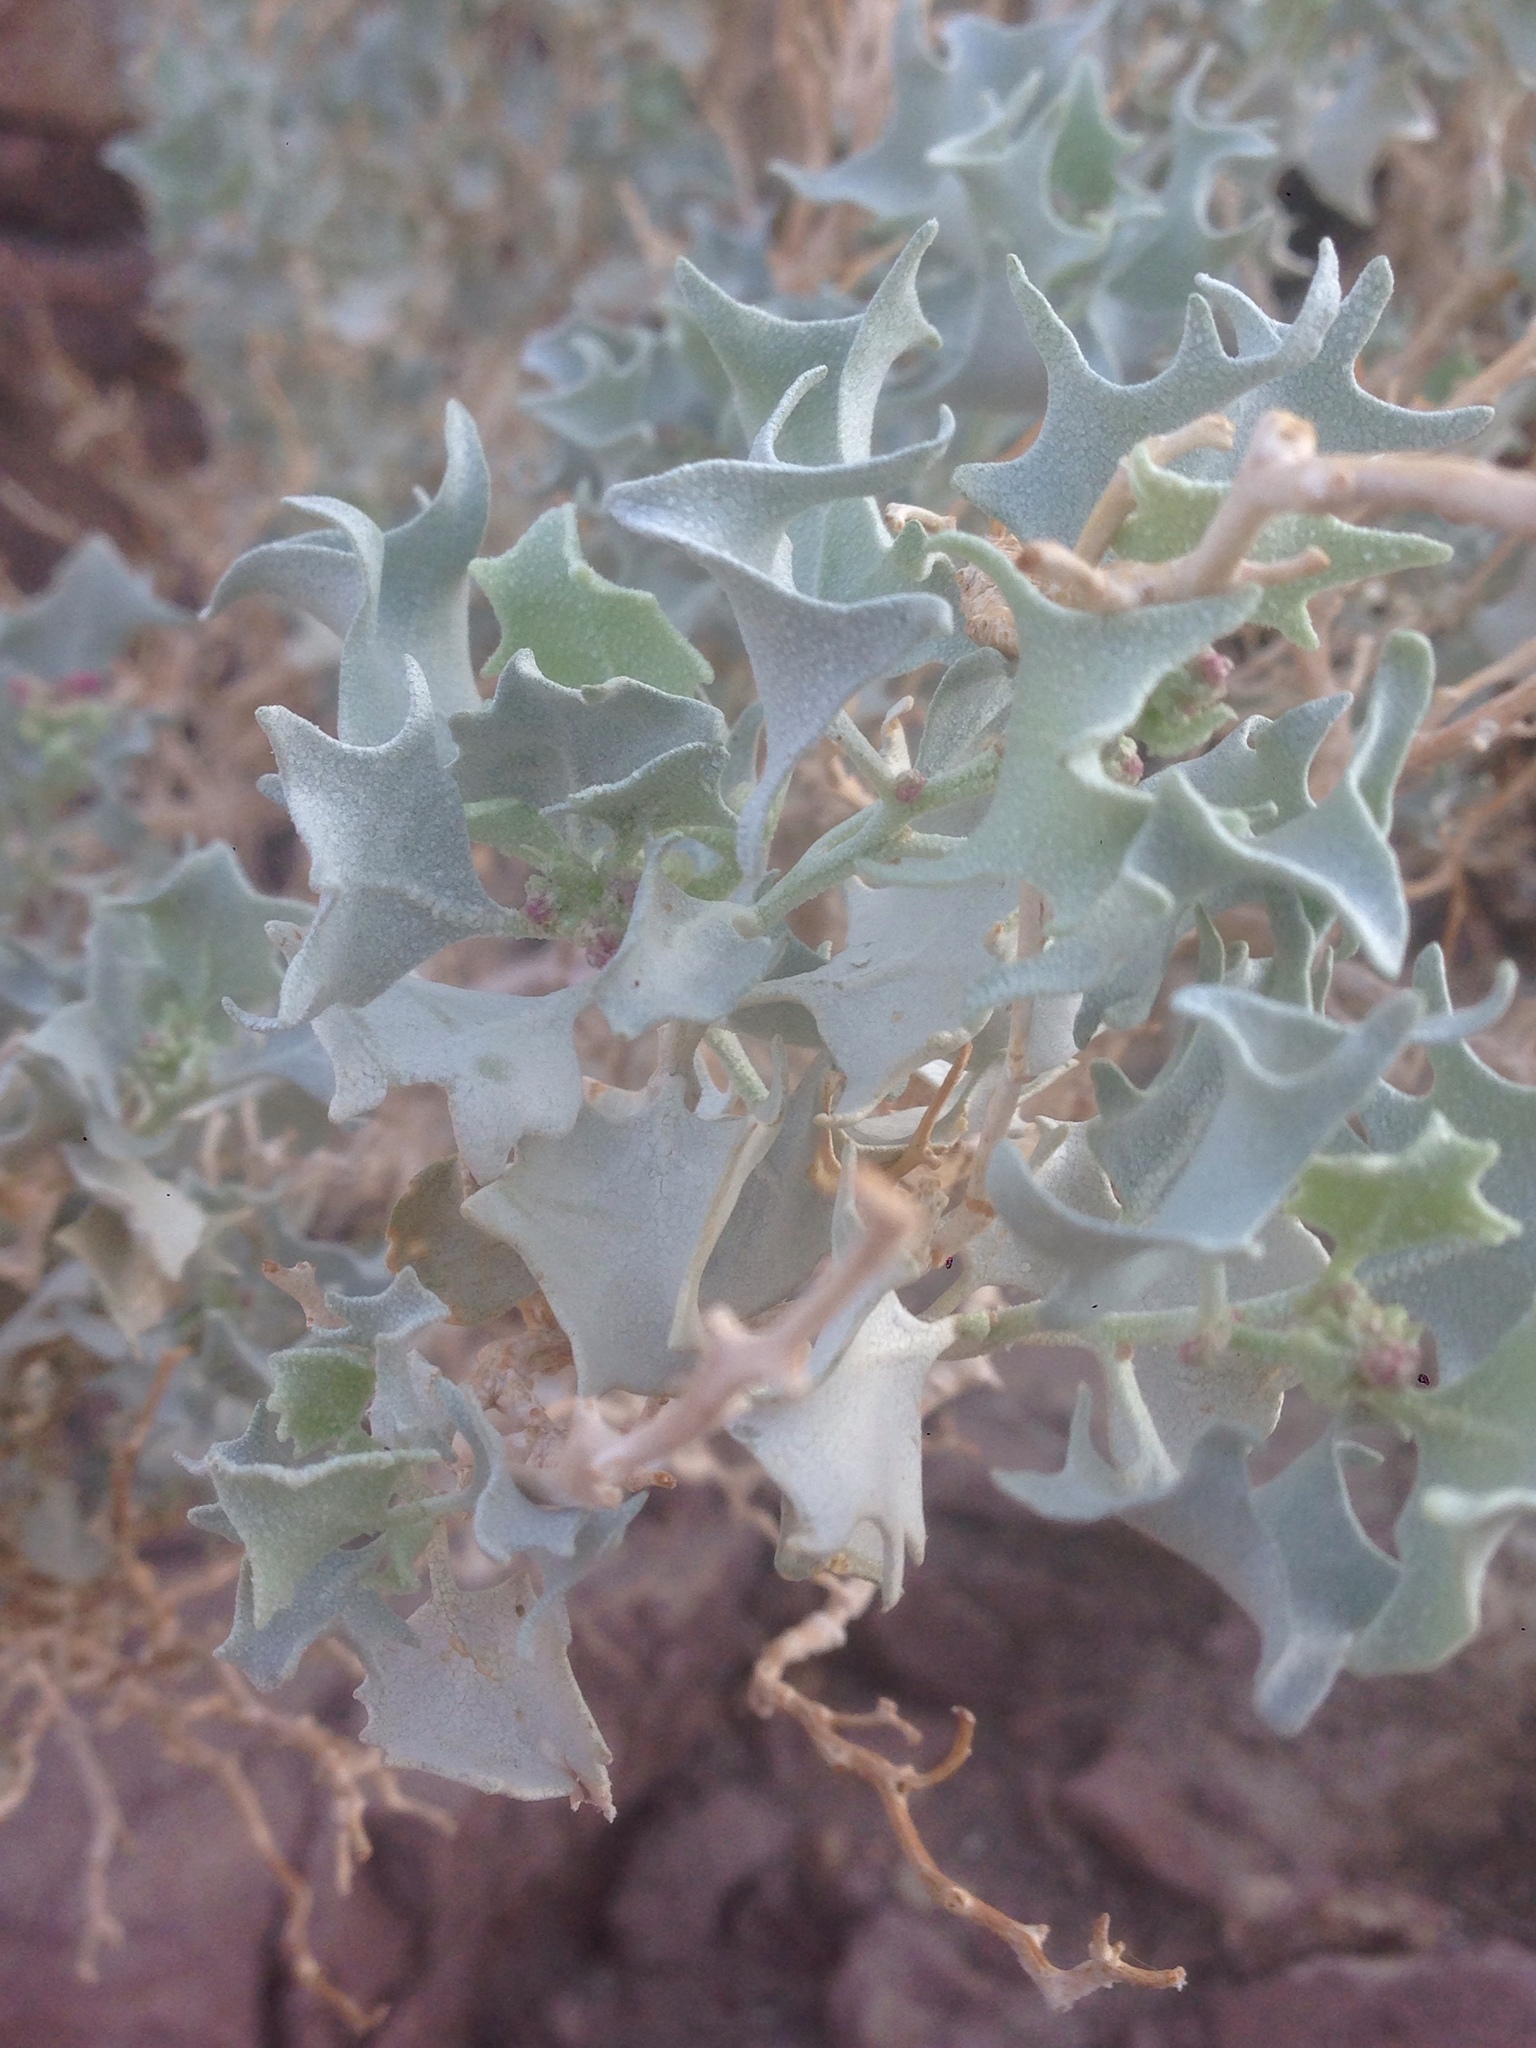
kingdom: Plantae
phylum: Tracheophyta
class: Magnoliopsida
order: Caryophyllales
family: Amaranthaceae
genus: Atriplex
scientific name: Atriplex hymenelytra
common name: Desert-holly
